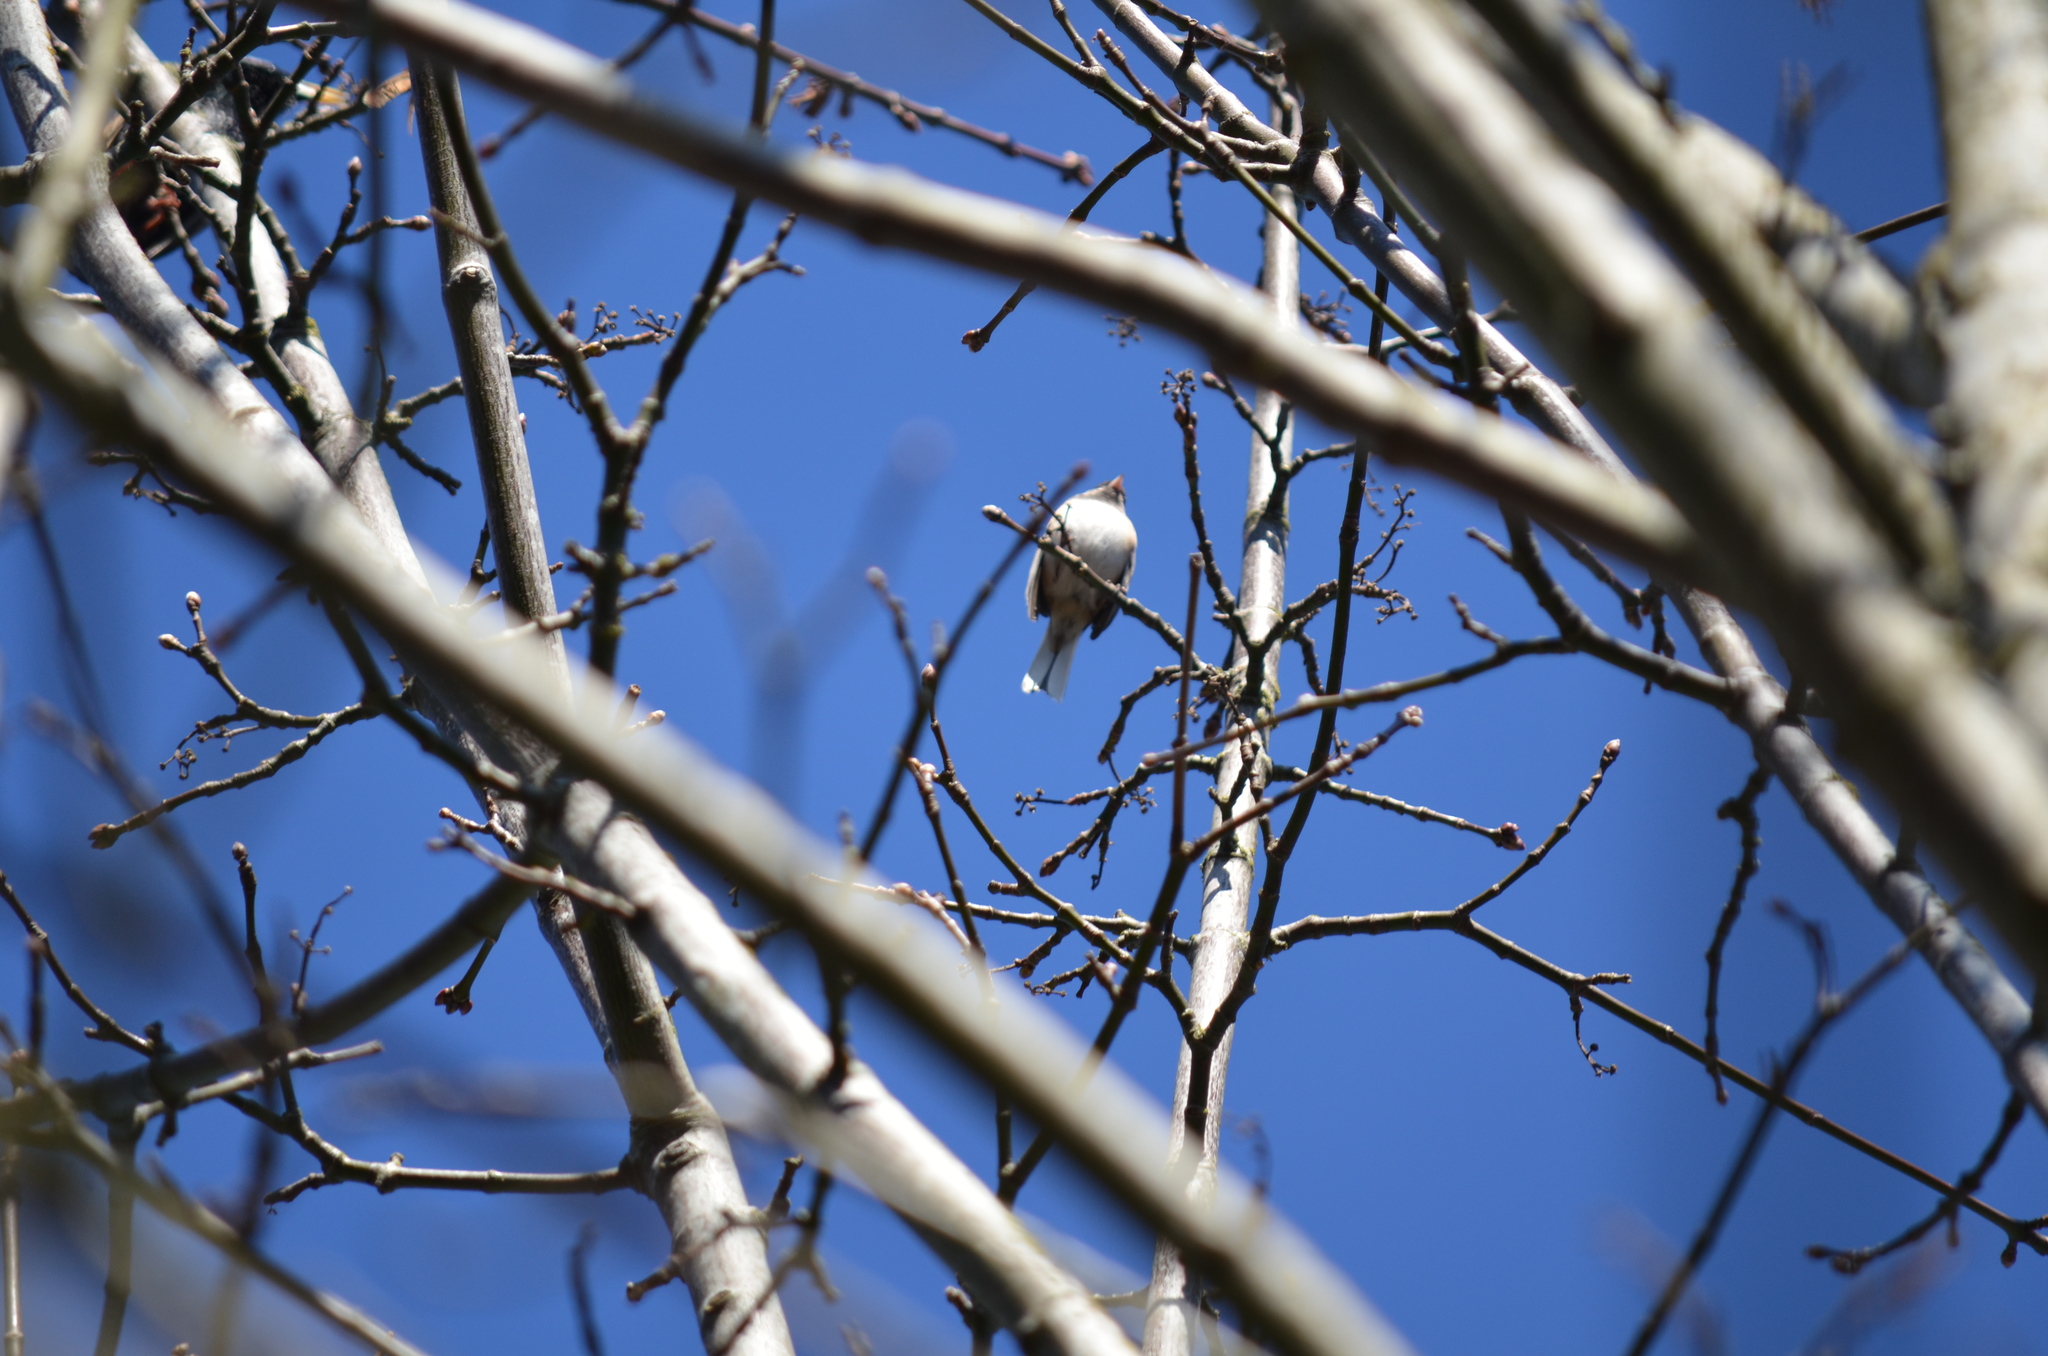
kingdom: Animalia
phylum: Chordata
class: Aves
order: Passeriformes
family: Passerellidae
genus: Junco
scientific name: Junco hyemalis
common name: Dark-eyed junco
